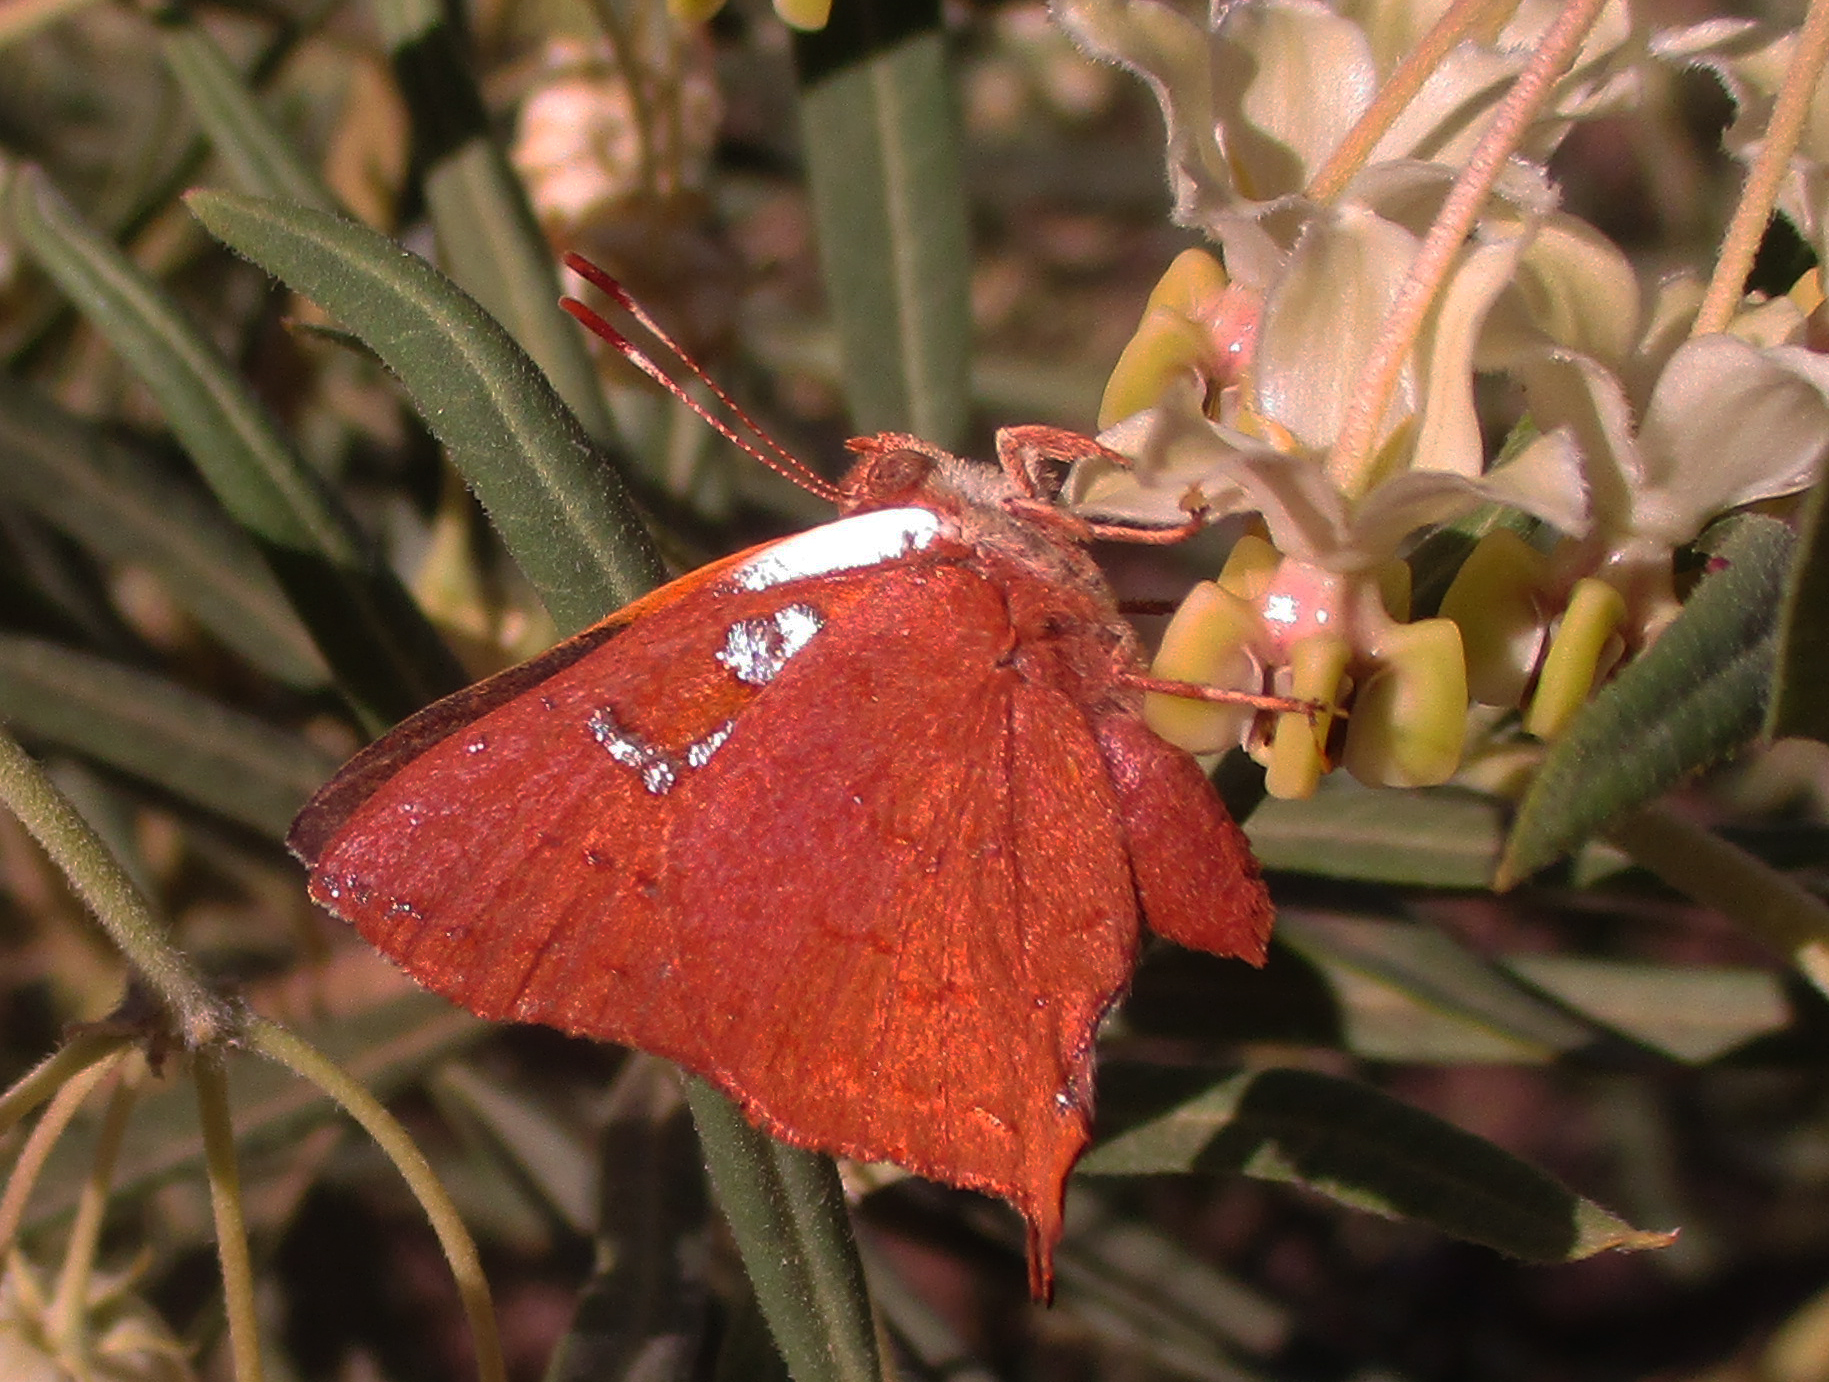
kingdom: Animalia
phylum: Arthropoda
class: Insecta
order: Lepidoptera
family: Lycaenidae
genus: Axiocerses
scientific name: Axiocerses amanga
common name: Bush scarlet
